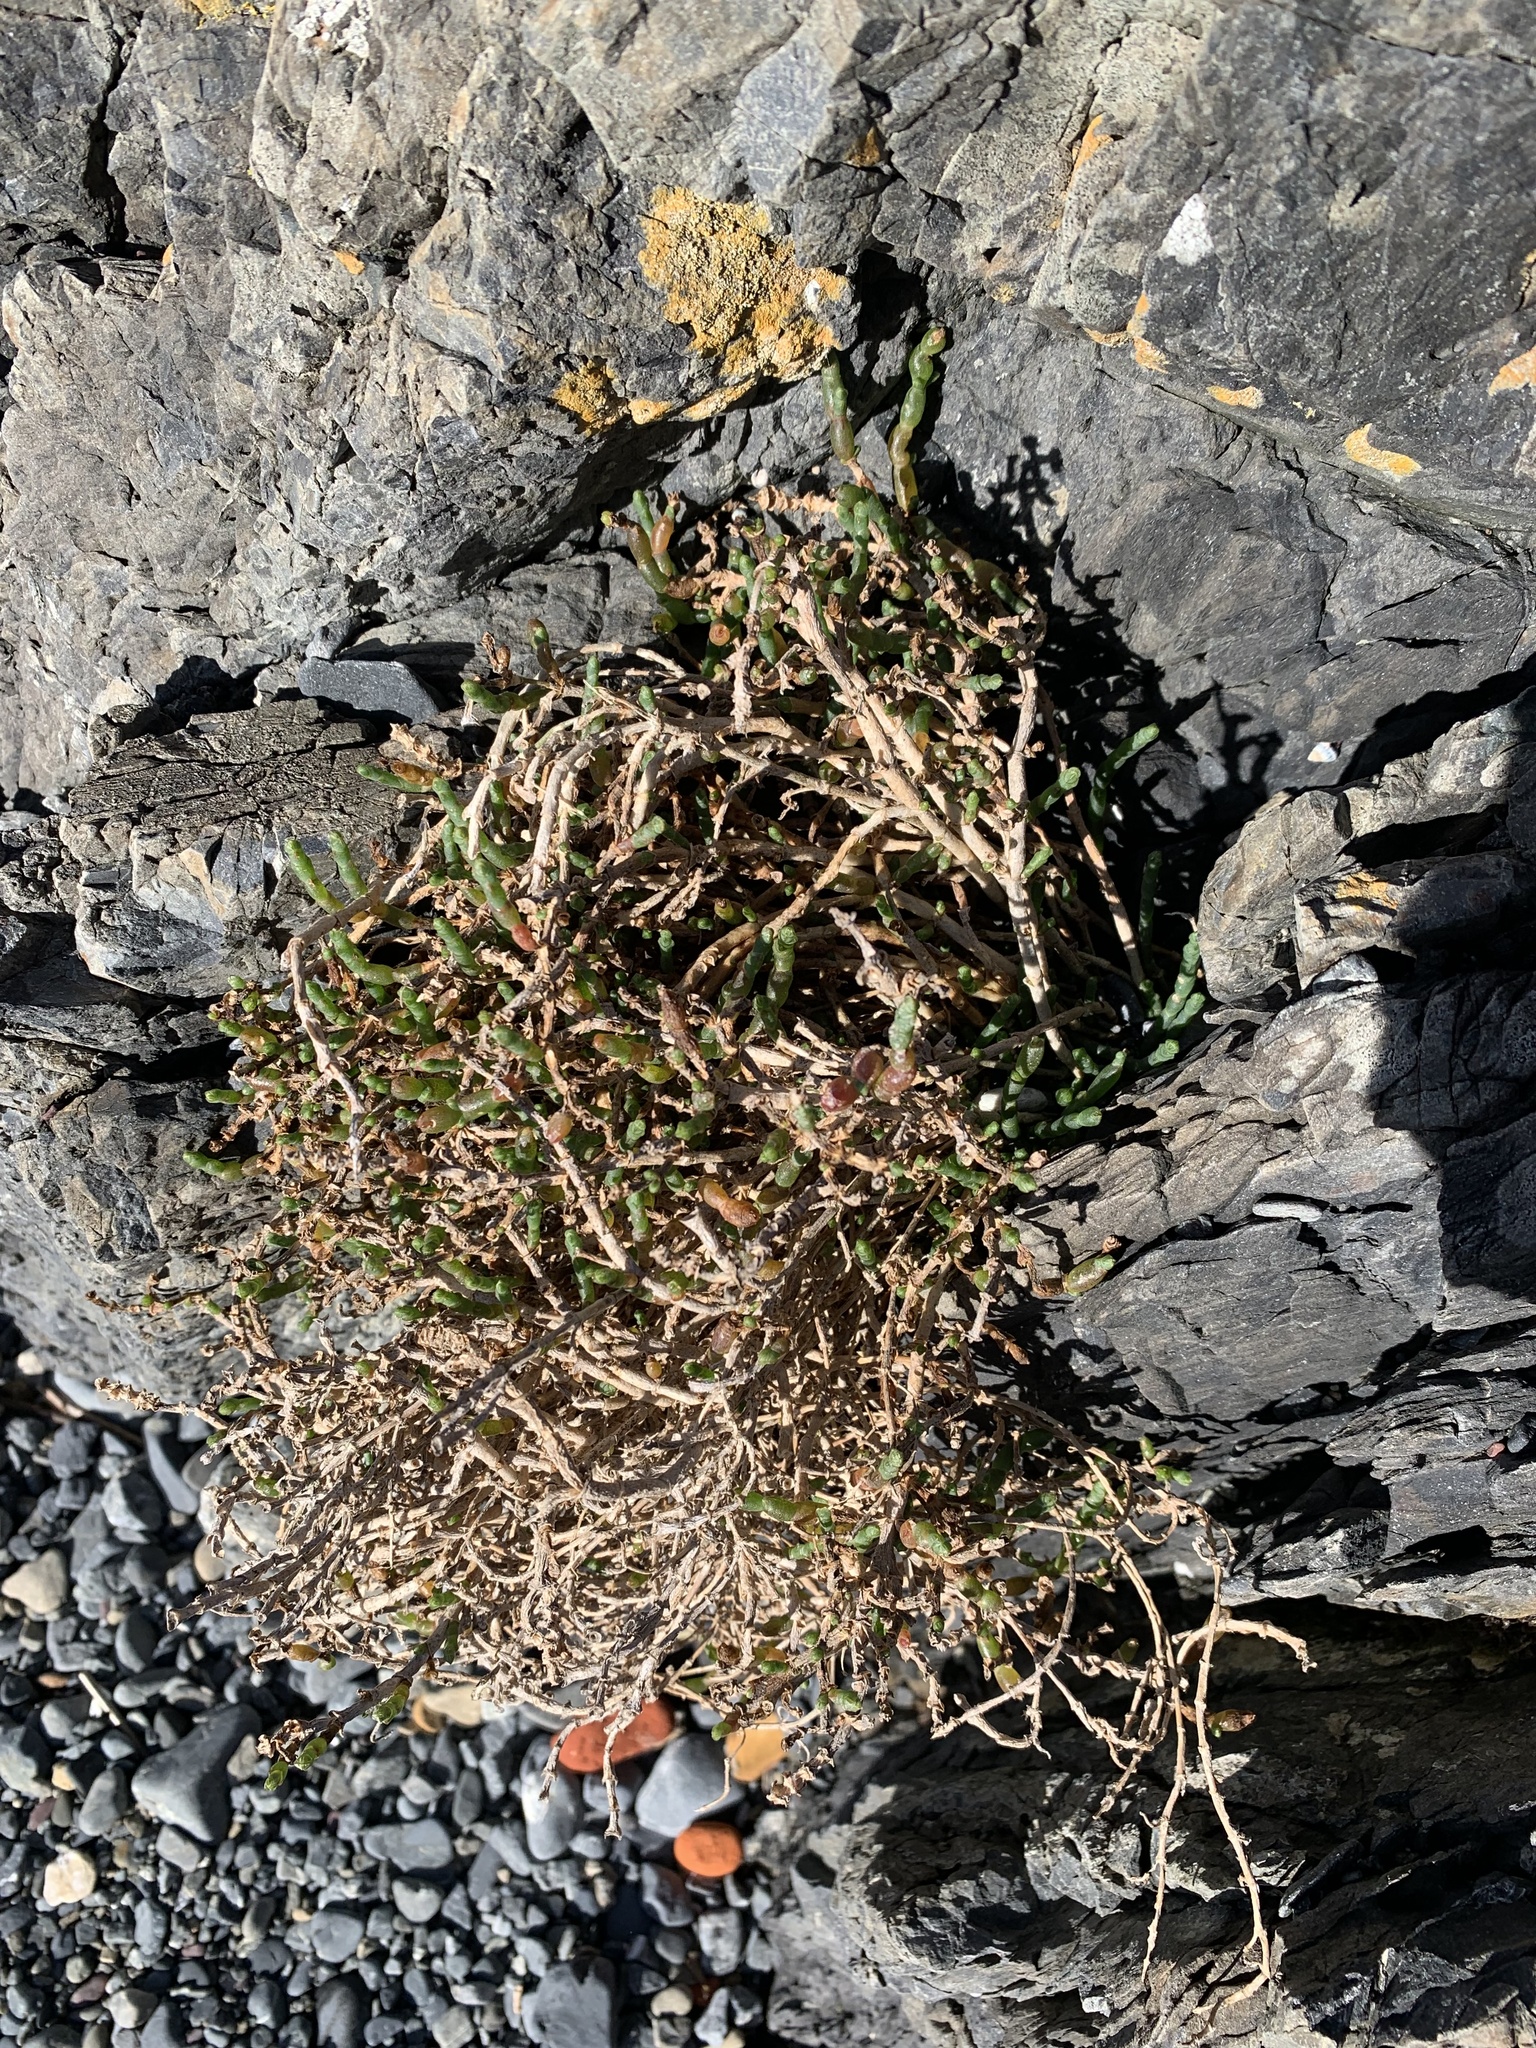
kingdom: Plantae
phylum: Tracheophyta
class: Magnoliopsida
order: Caryophyllales
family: Amaranthaceae
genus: Salicornia
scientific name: Salicornia quinqueflora
